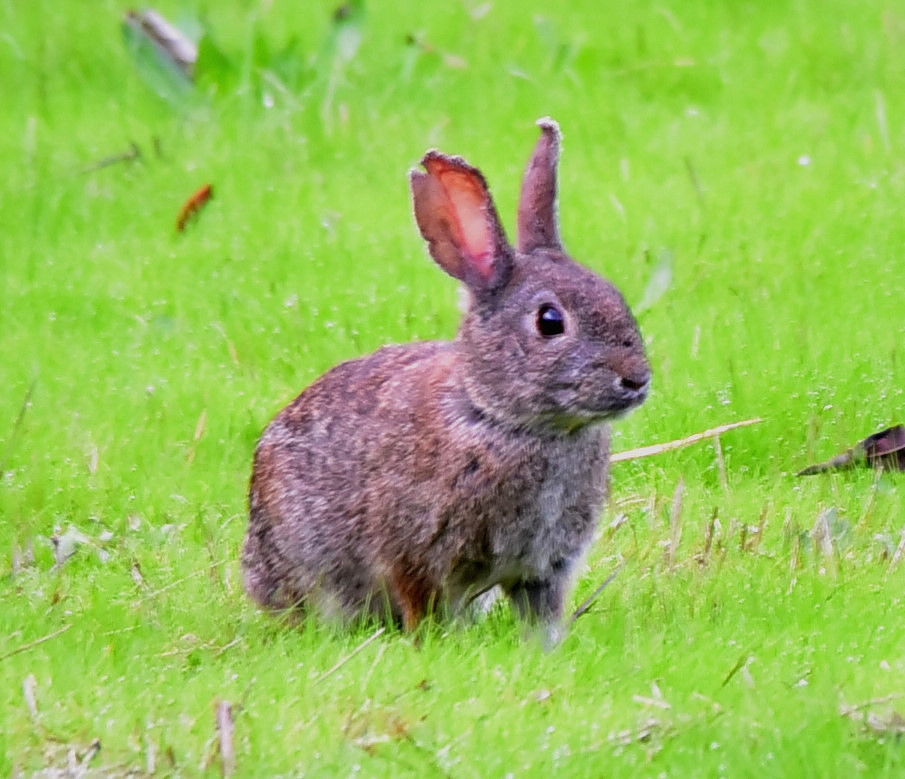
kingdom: Animalia
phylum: Chordata
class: Mammalia
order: Lagomorpha
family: Leporidae
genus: Sylvilagus
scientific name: Sylvilagus bachmani
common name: Brush rabbit
